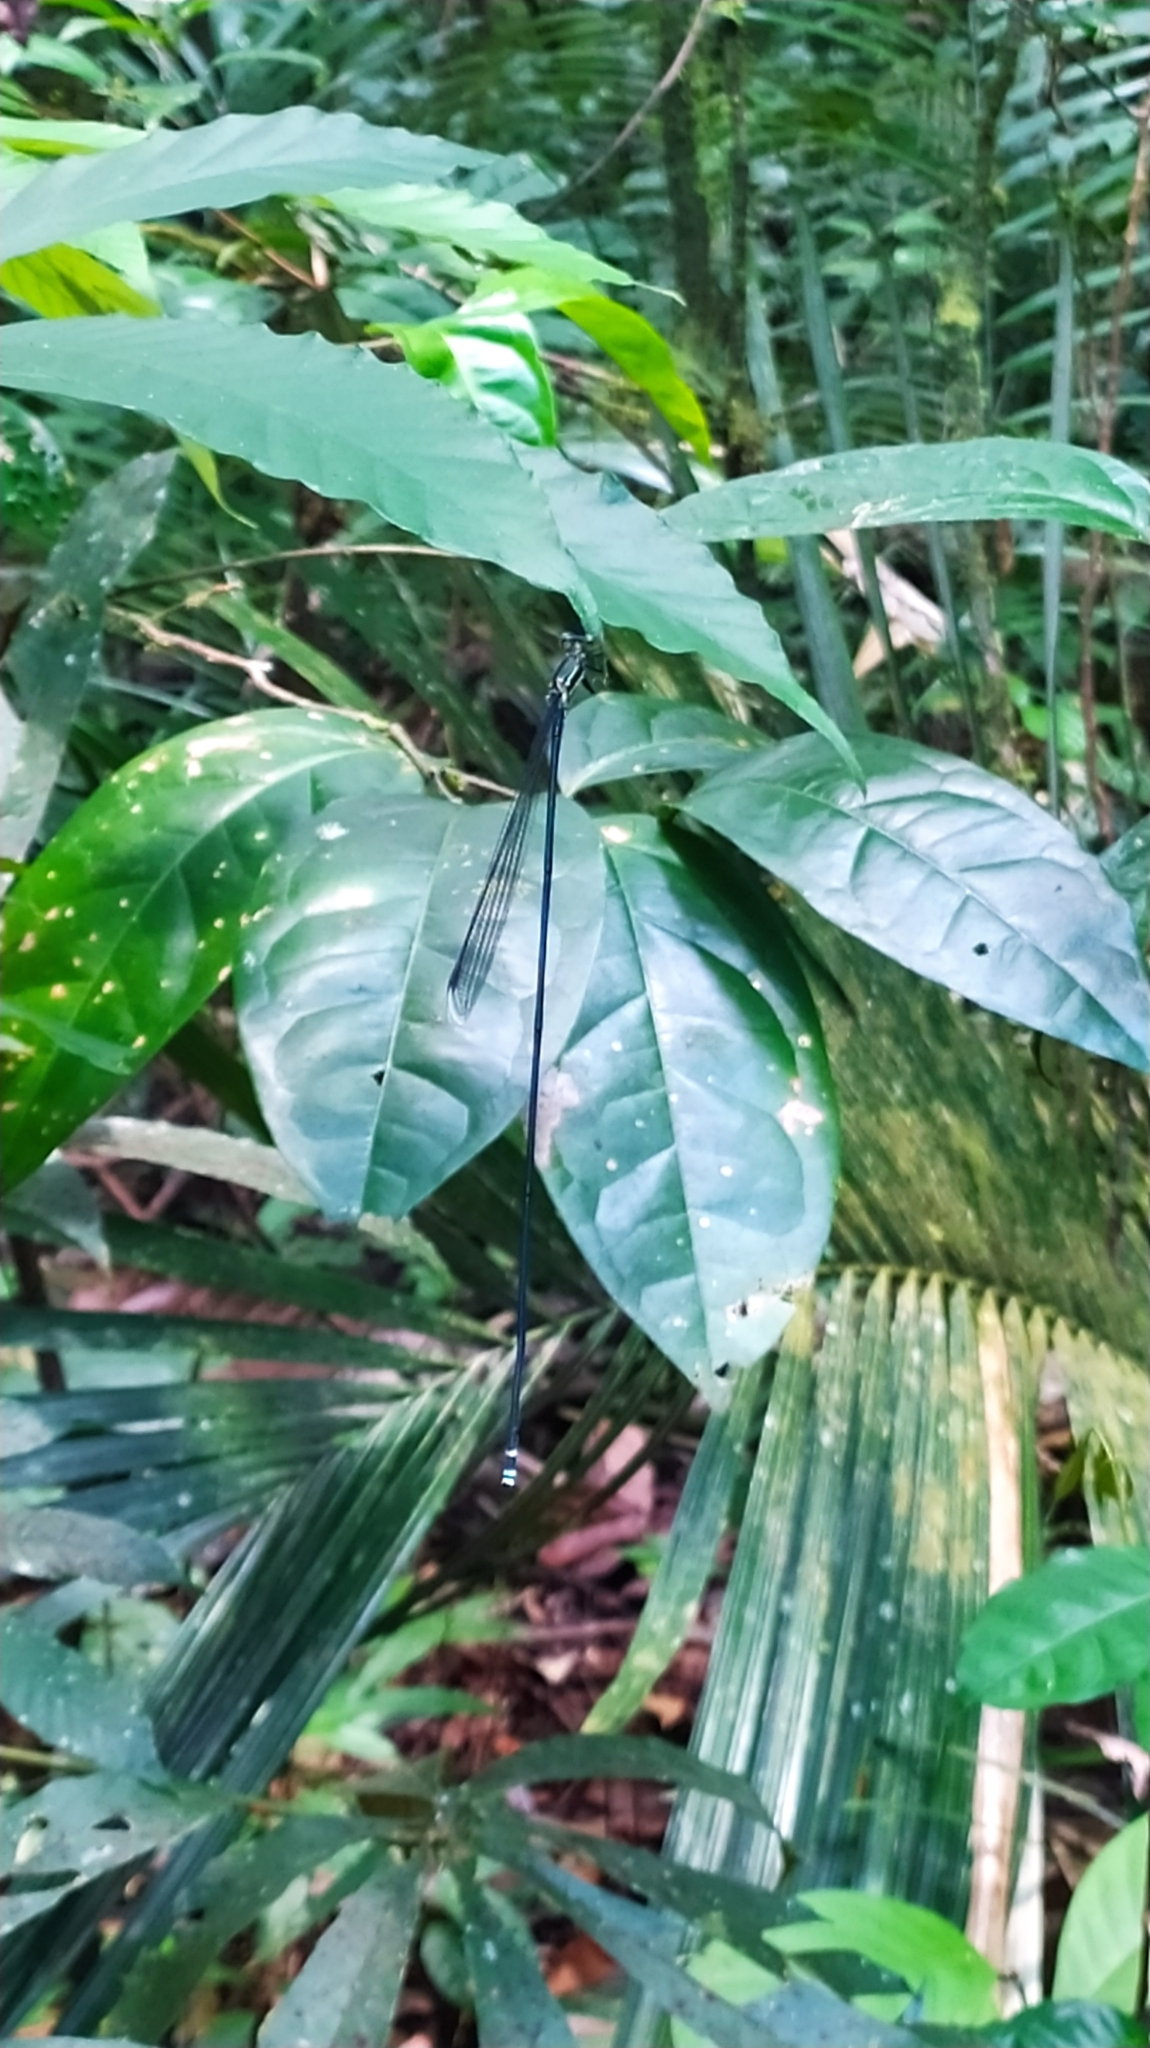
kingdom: Animalia
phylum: Arthropoda
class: Insecta
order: Odonata
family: Coenagrionidae
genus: Mecistogaster
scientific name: Mecistogaster lucretia
